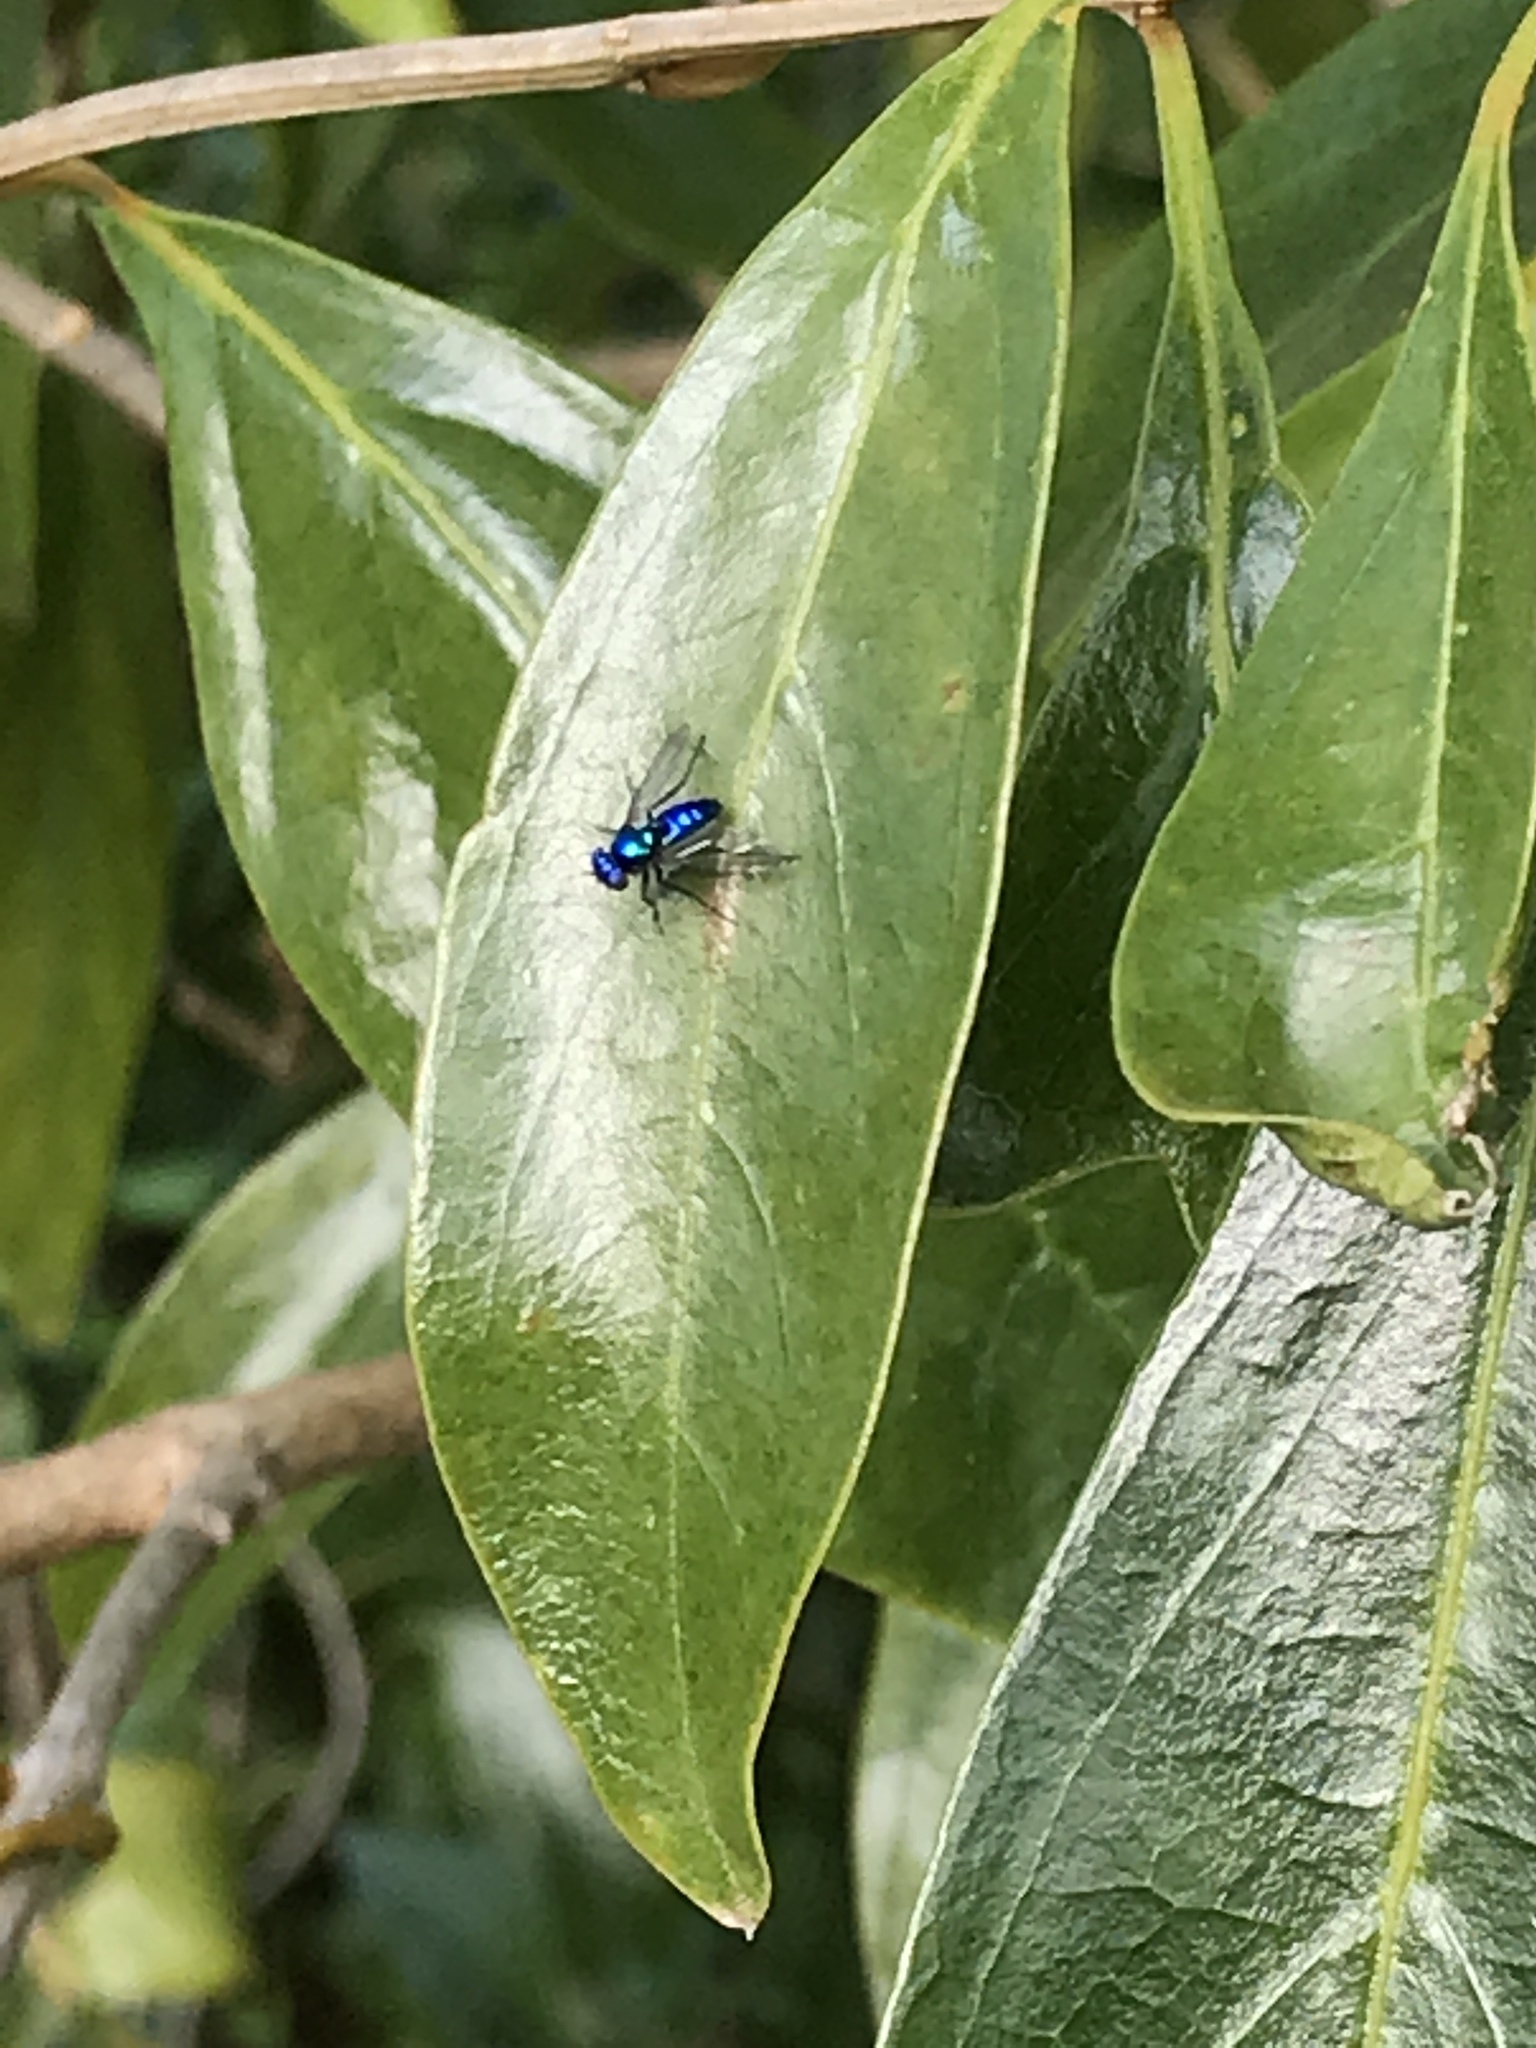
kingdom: Animalia
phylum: Arthropoda
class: Insecta
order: Diptera
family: Dolichopodidae
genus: Condylostylus
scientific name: Condylostylus mundus
